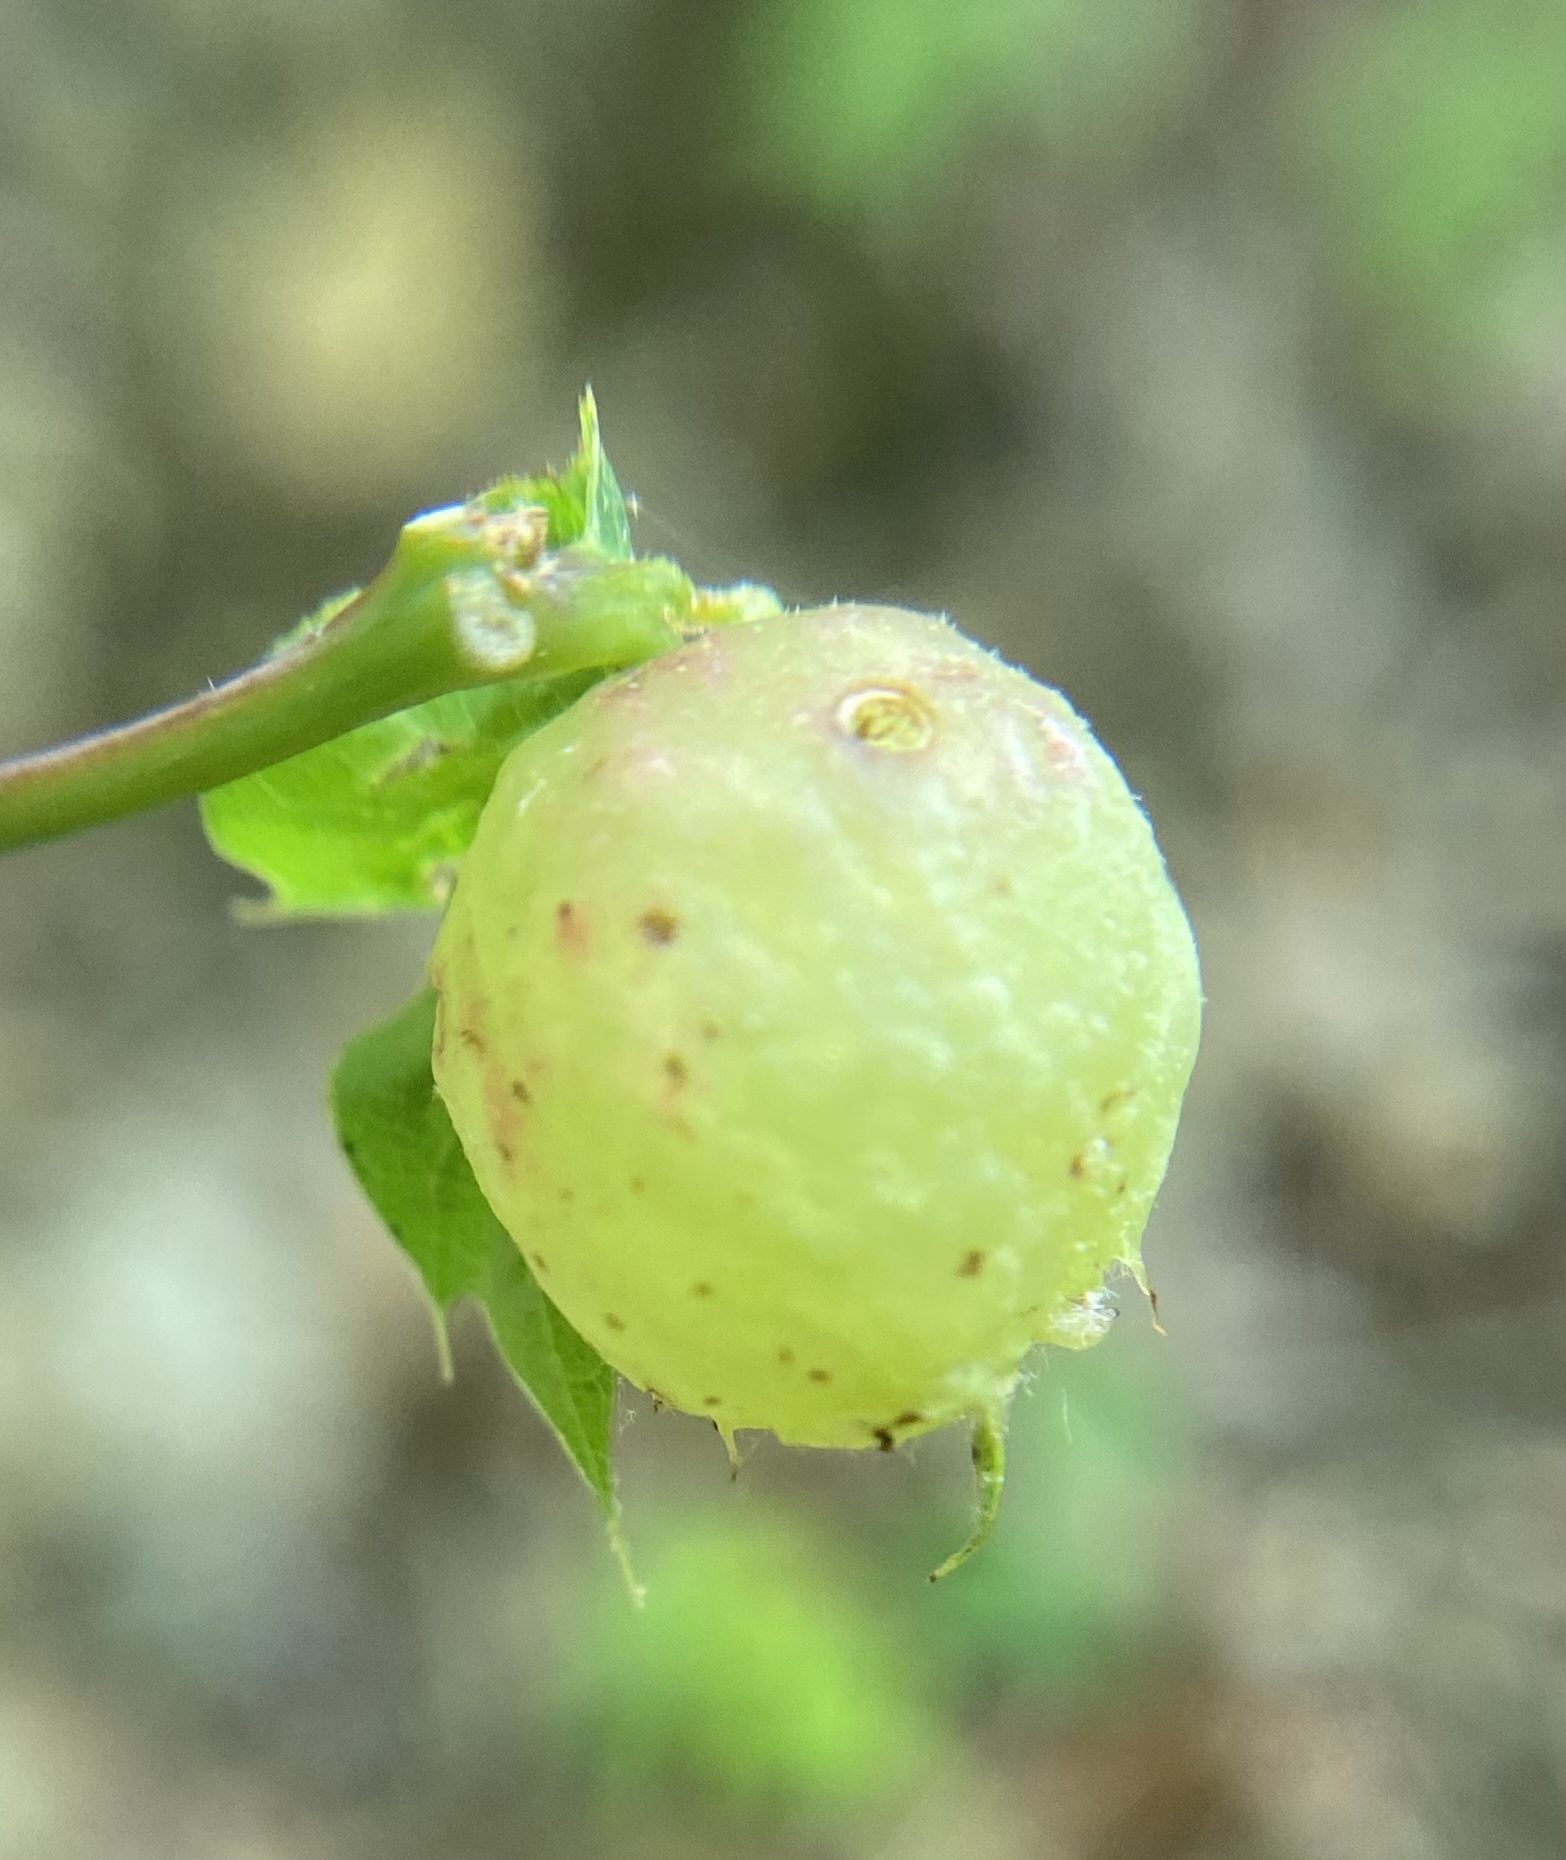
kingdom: Animalia
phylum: Arthropoda
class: Insecta
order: Hymenoptera
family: Cynipidae
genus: Dryocosmus
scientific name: Dryocosmus quercuspalustris
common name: Succulent oak gall wasp
